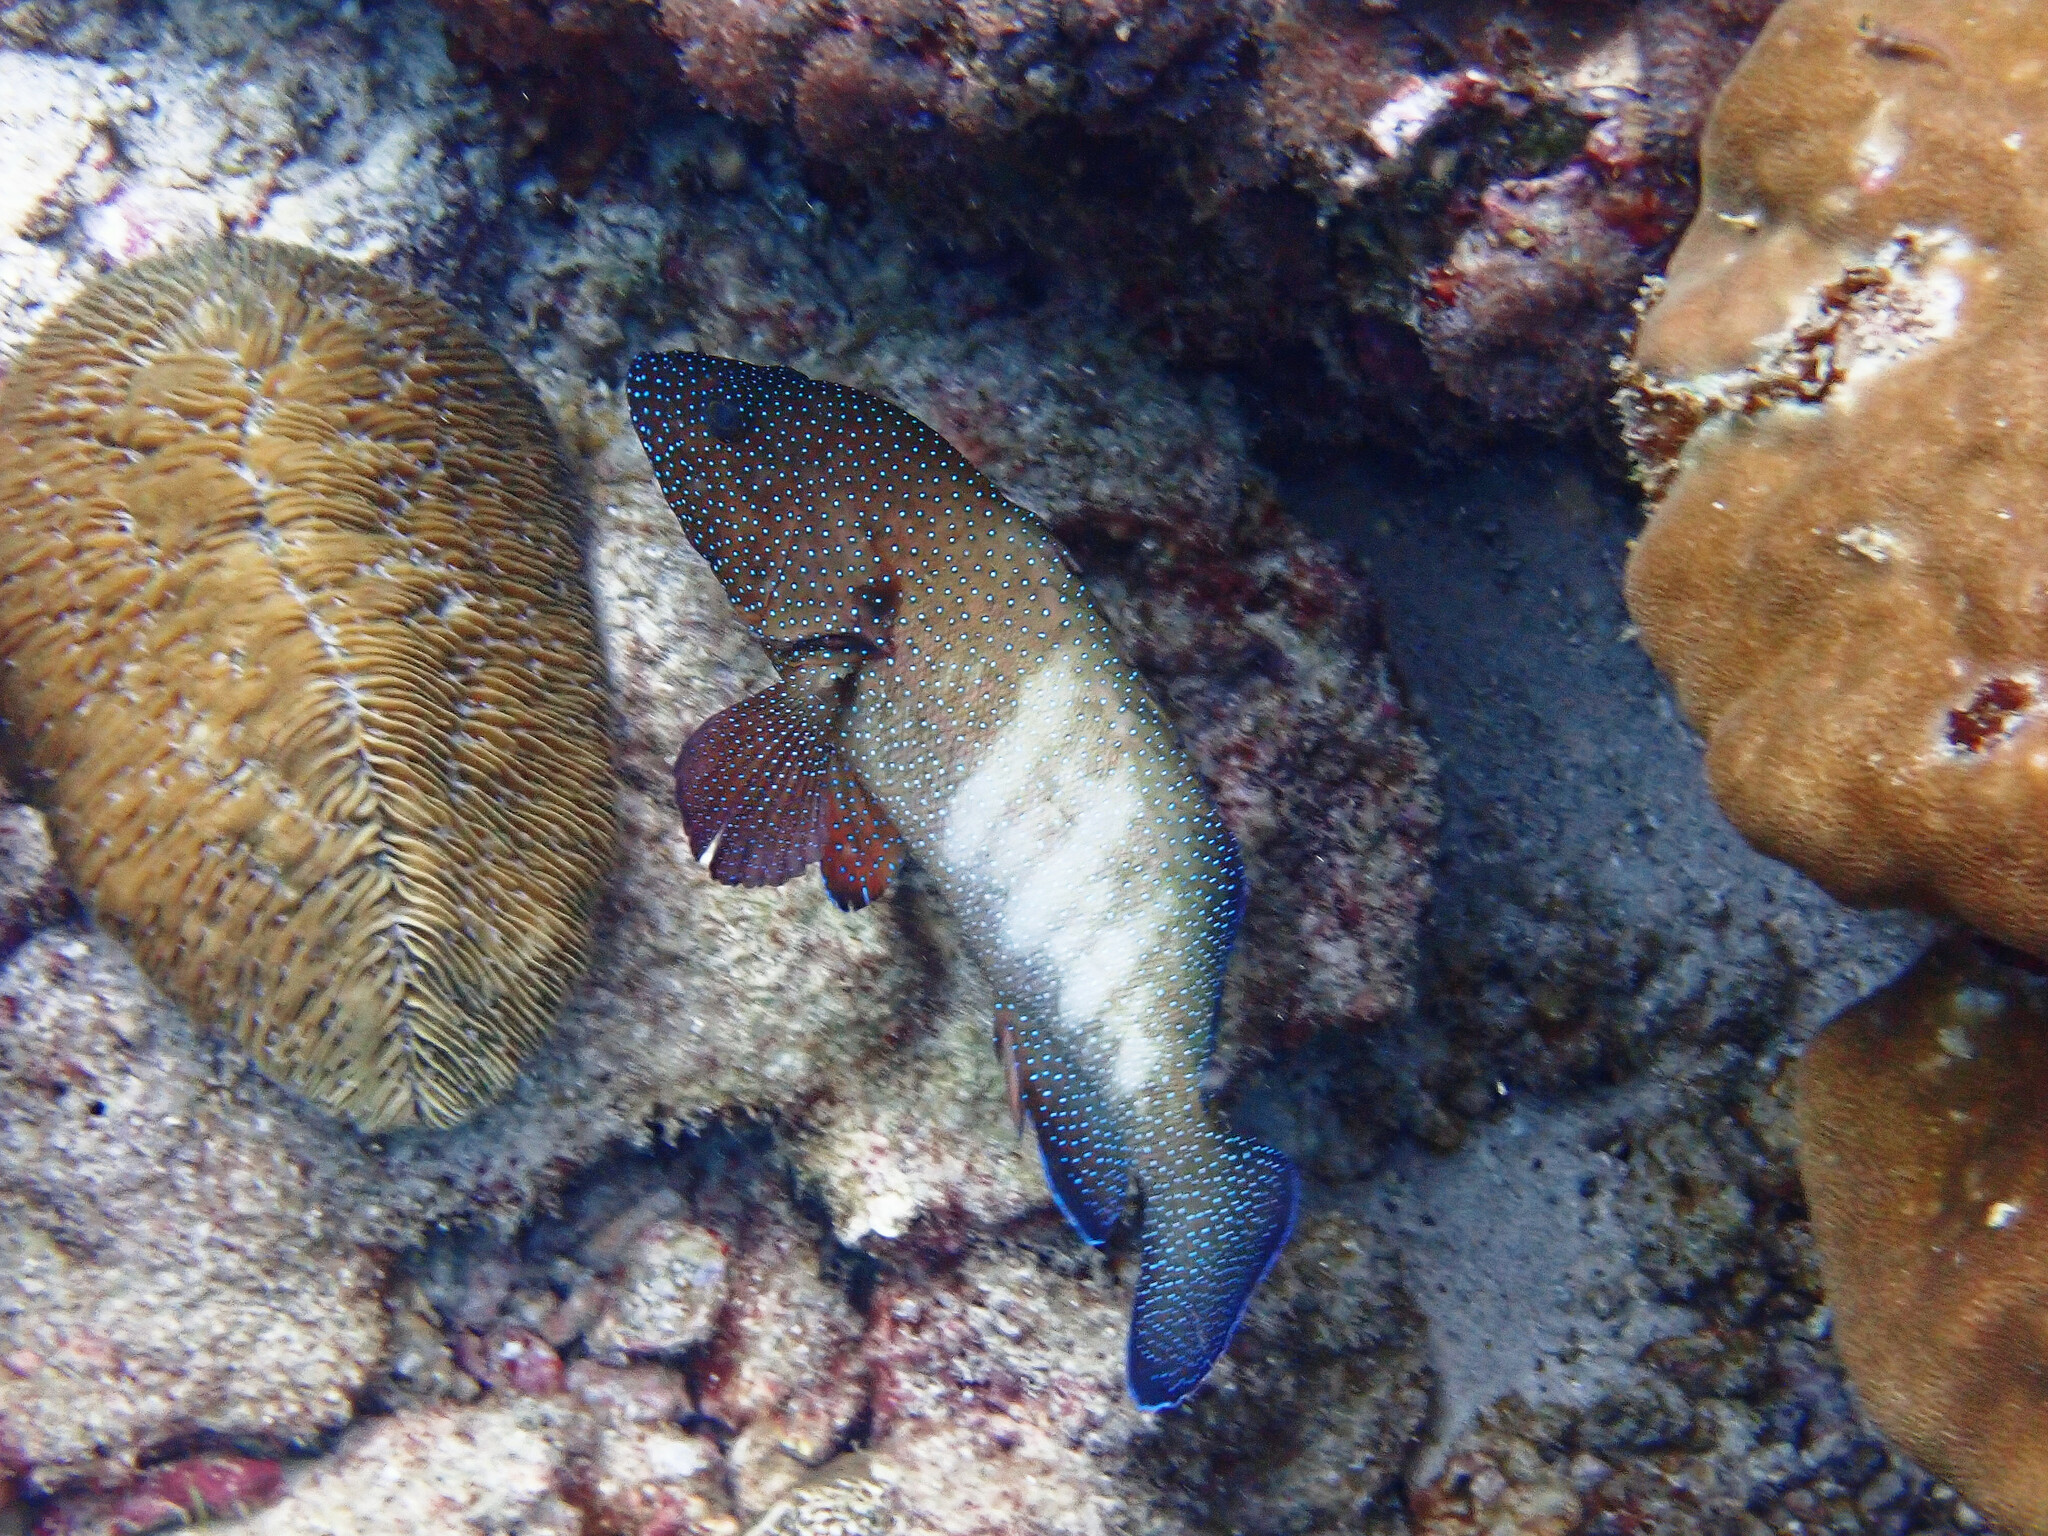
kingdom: Animalia
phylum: Chordata
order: Perciformes
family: Serranidae
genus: Cephalopholis
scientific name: Cephalopholis argus
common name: Peacock grouper
